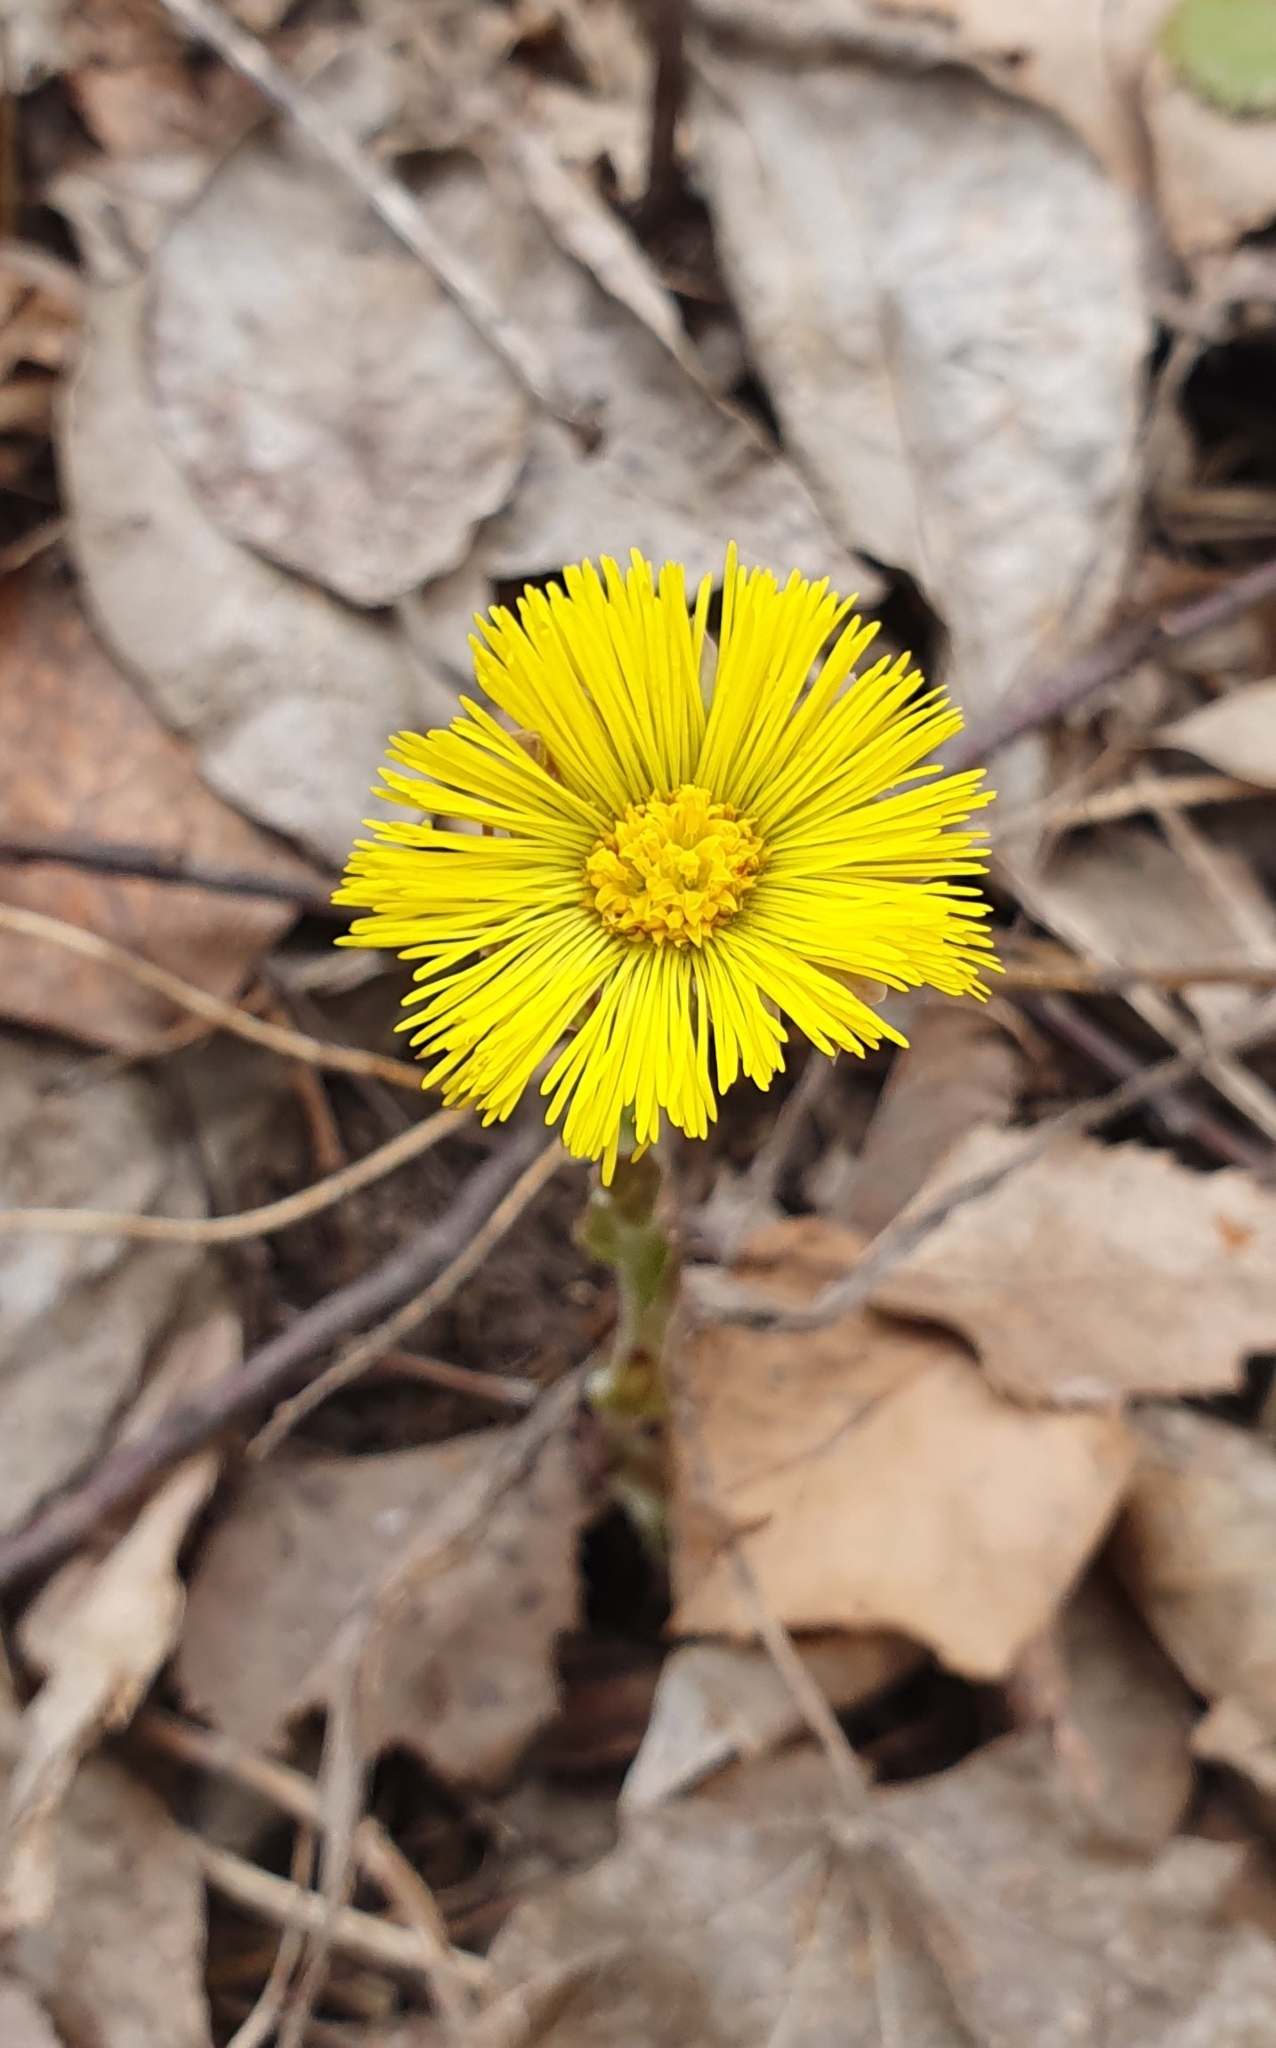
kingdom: Plantae
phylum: Tracheophyta
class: Magnoliopsida
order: Asterales
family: Asteraceae
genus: Tussilago
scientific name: Tussilago farfara
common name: Coltsfoot
